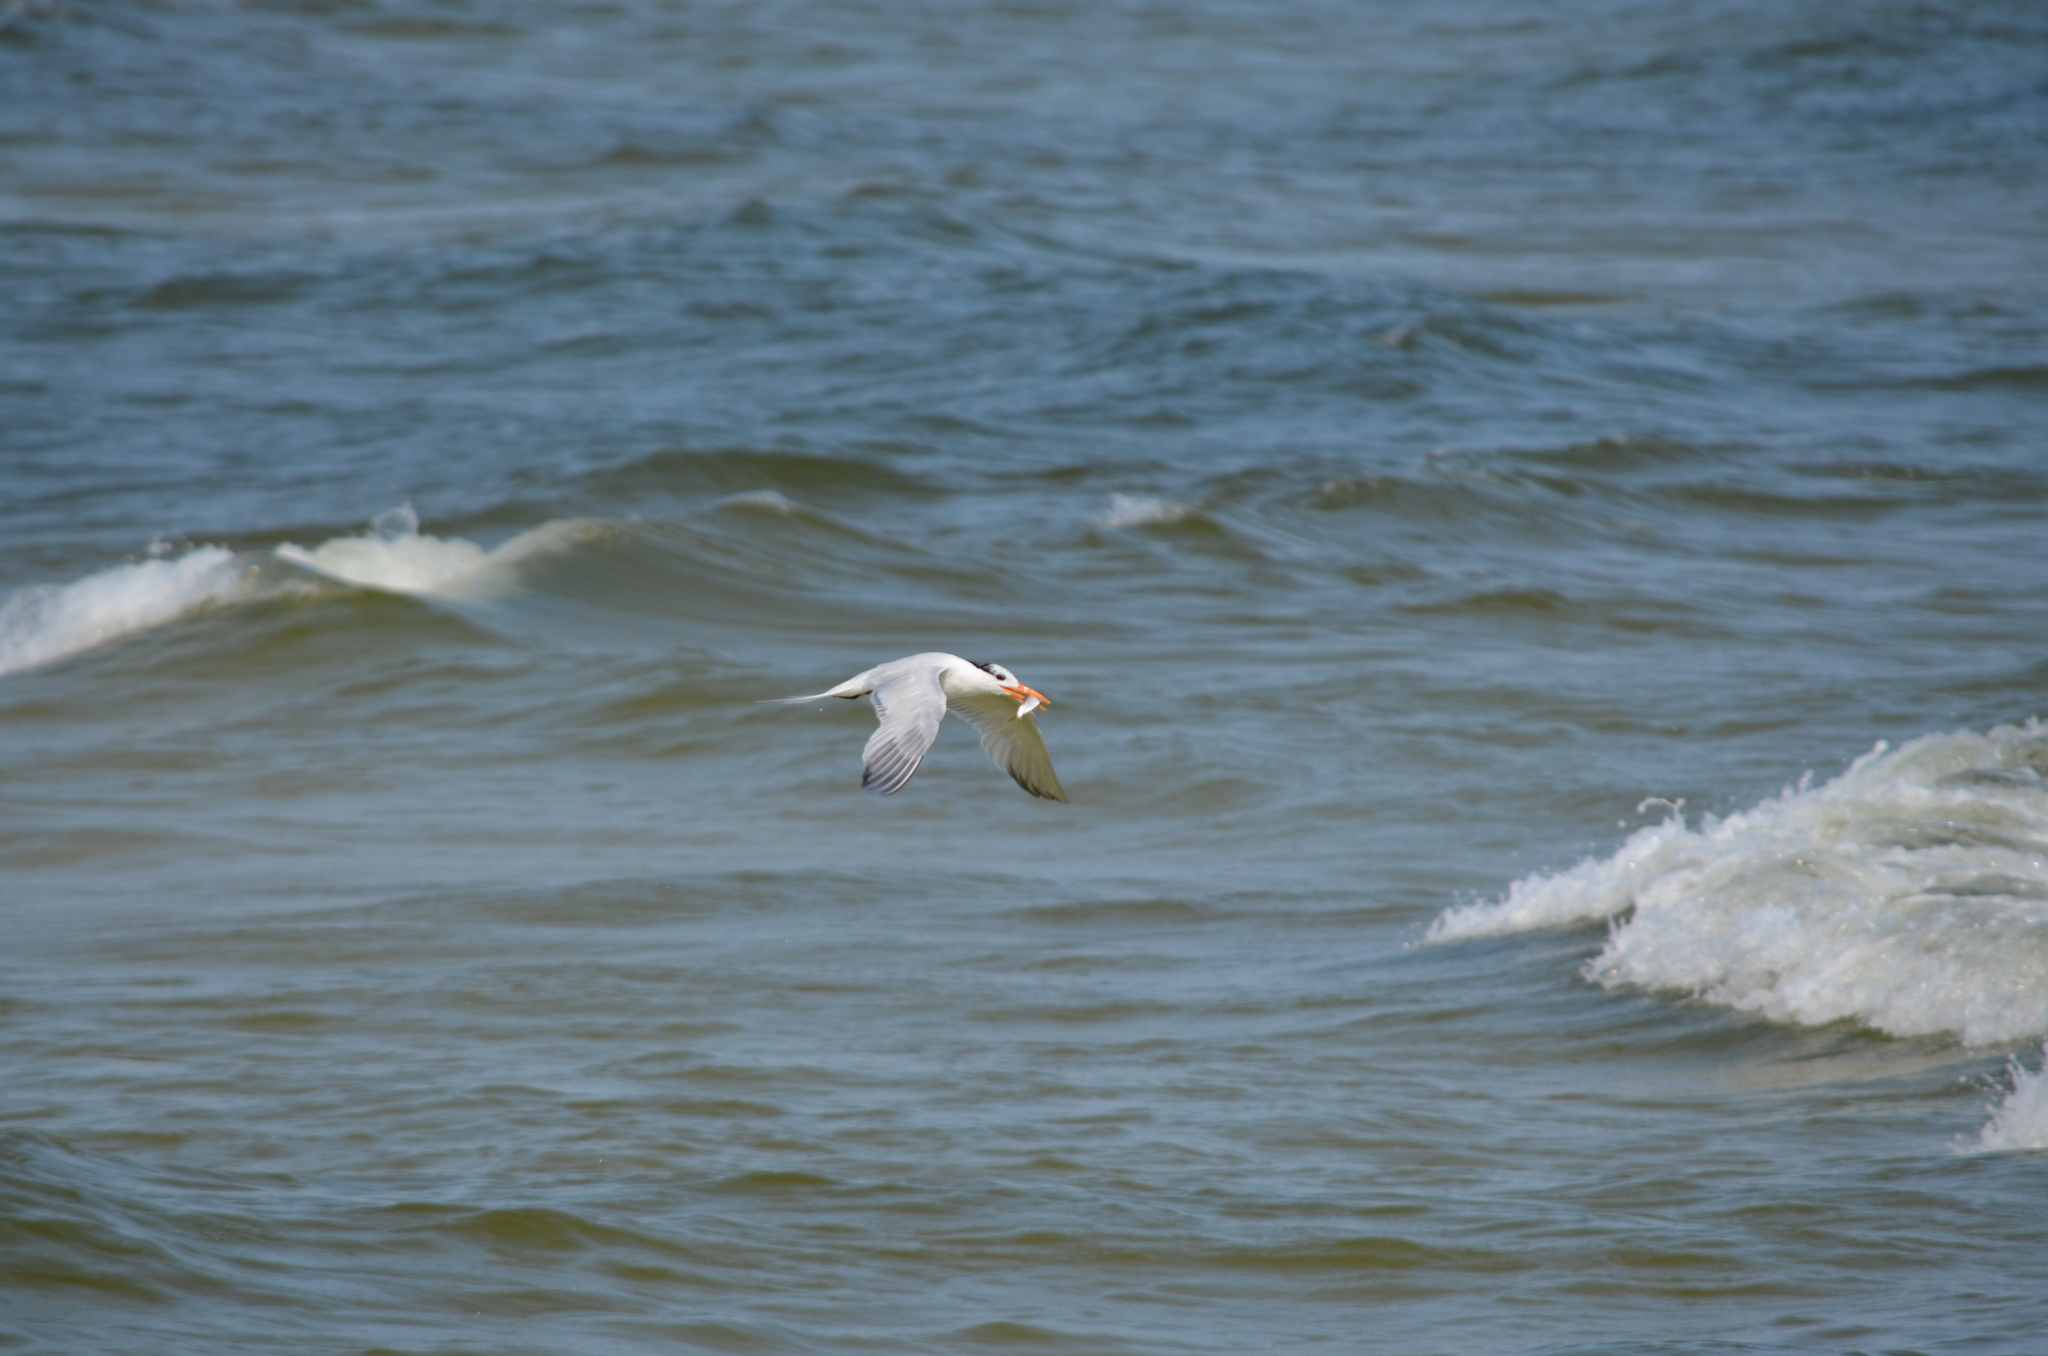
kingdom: Animalia
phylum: Chordata
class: Aves
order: Charadriiformes
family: Laridae
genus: Thalasseus
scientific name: Thalasseus maximus
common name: Royal tern
